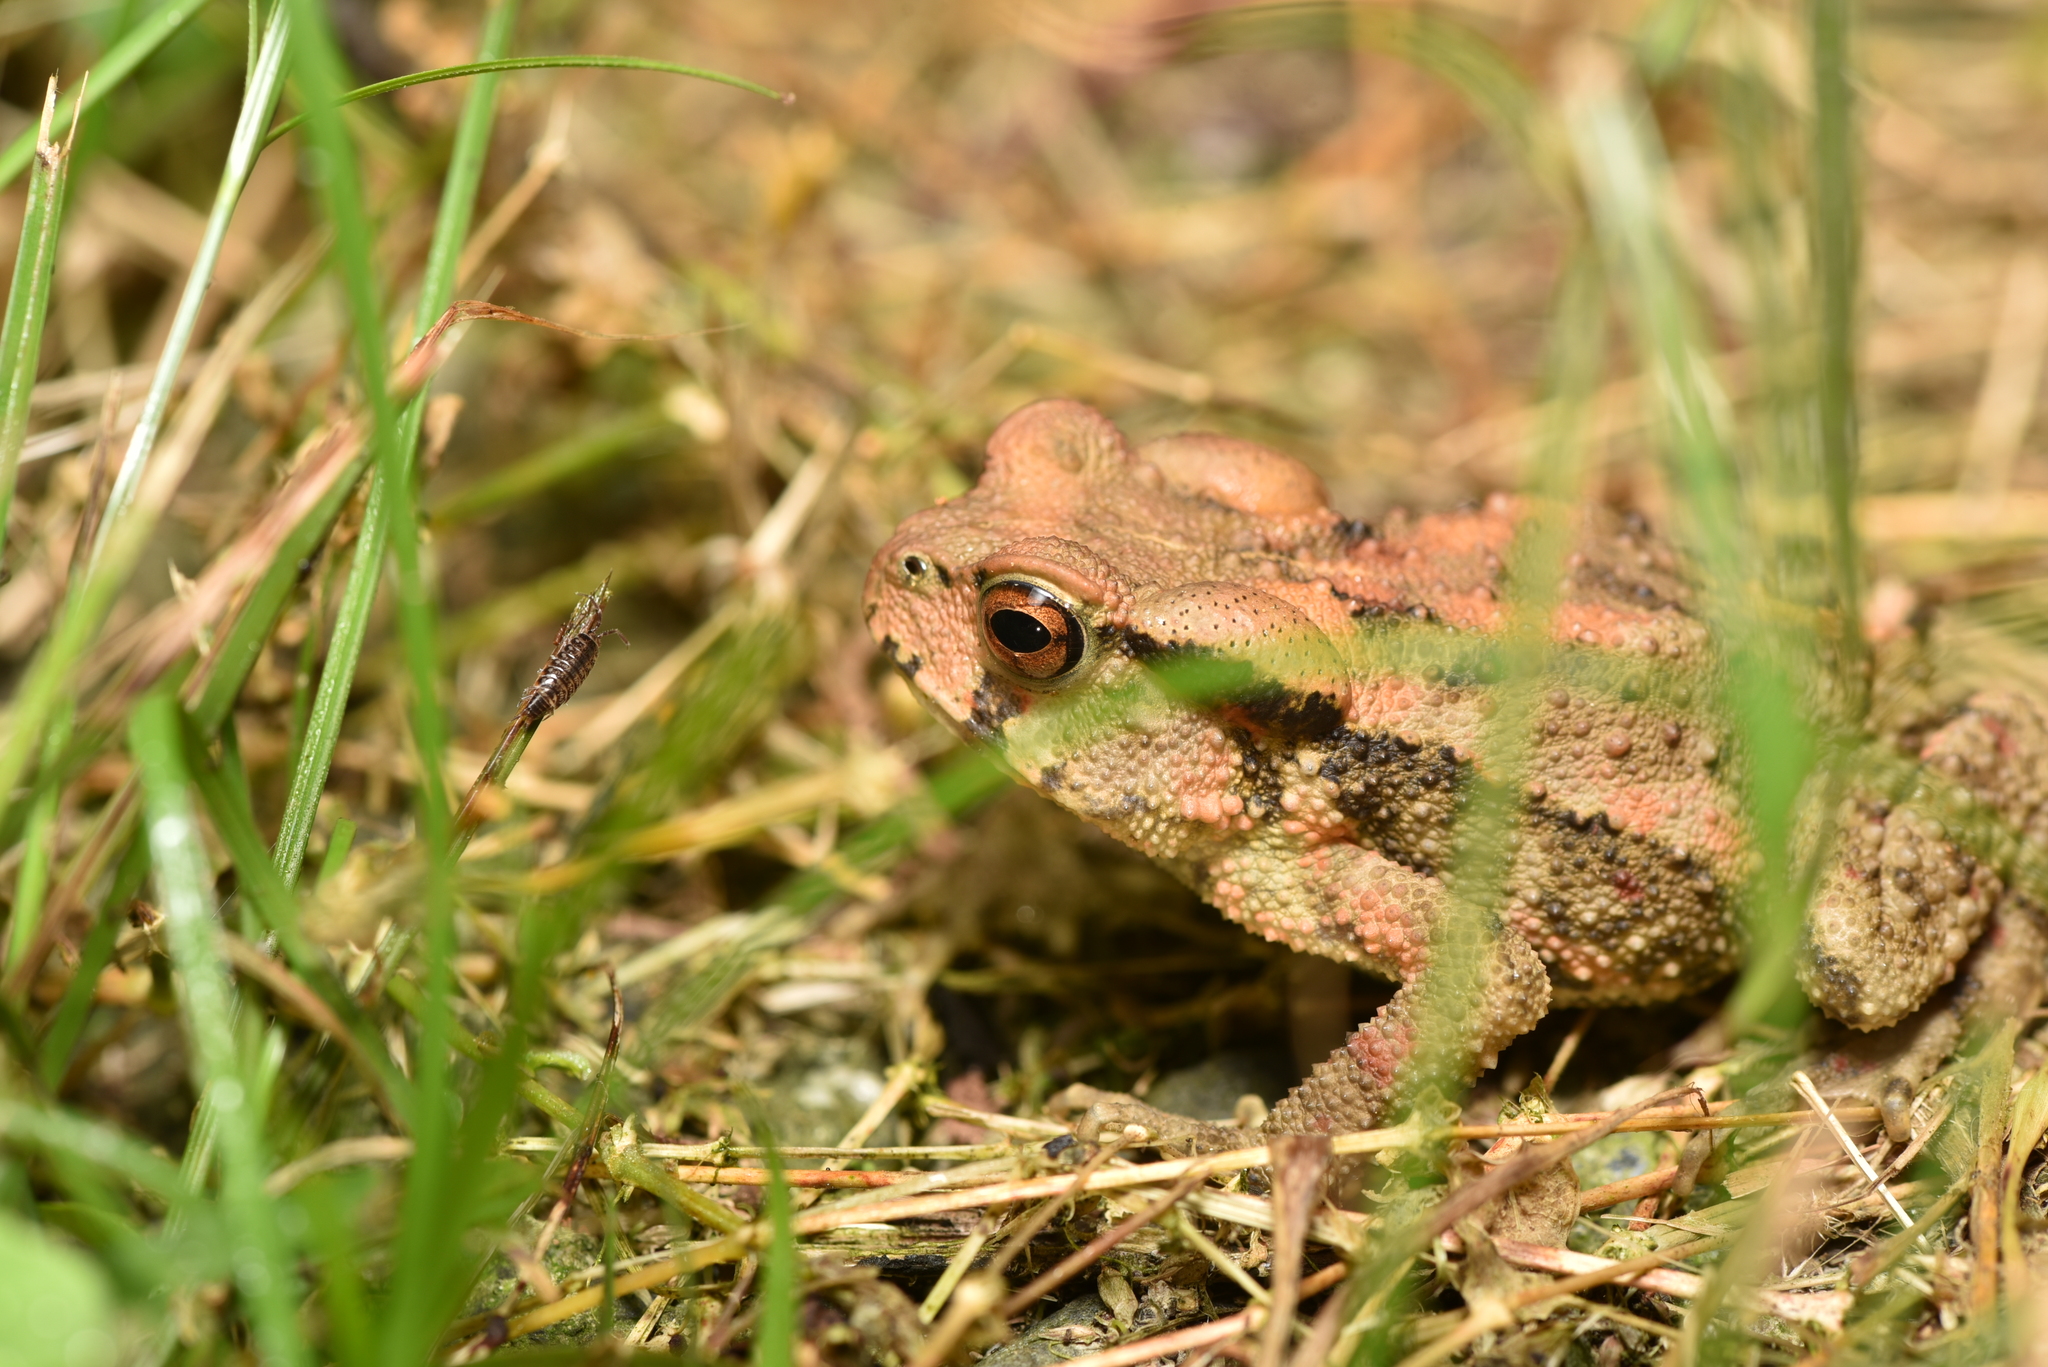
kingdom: Animalia
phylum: Chordata
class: Amphibia
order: Anura
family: Bufonidae
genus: Bufo
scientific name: Bufo bankorensis
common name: Bankor toad
